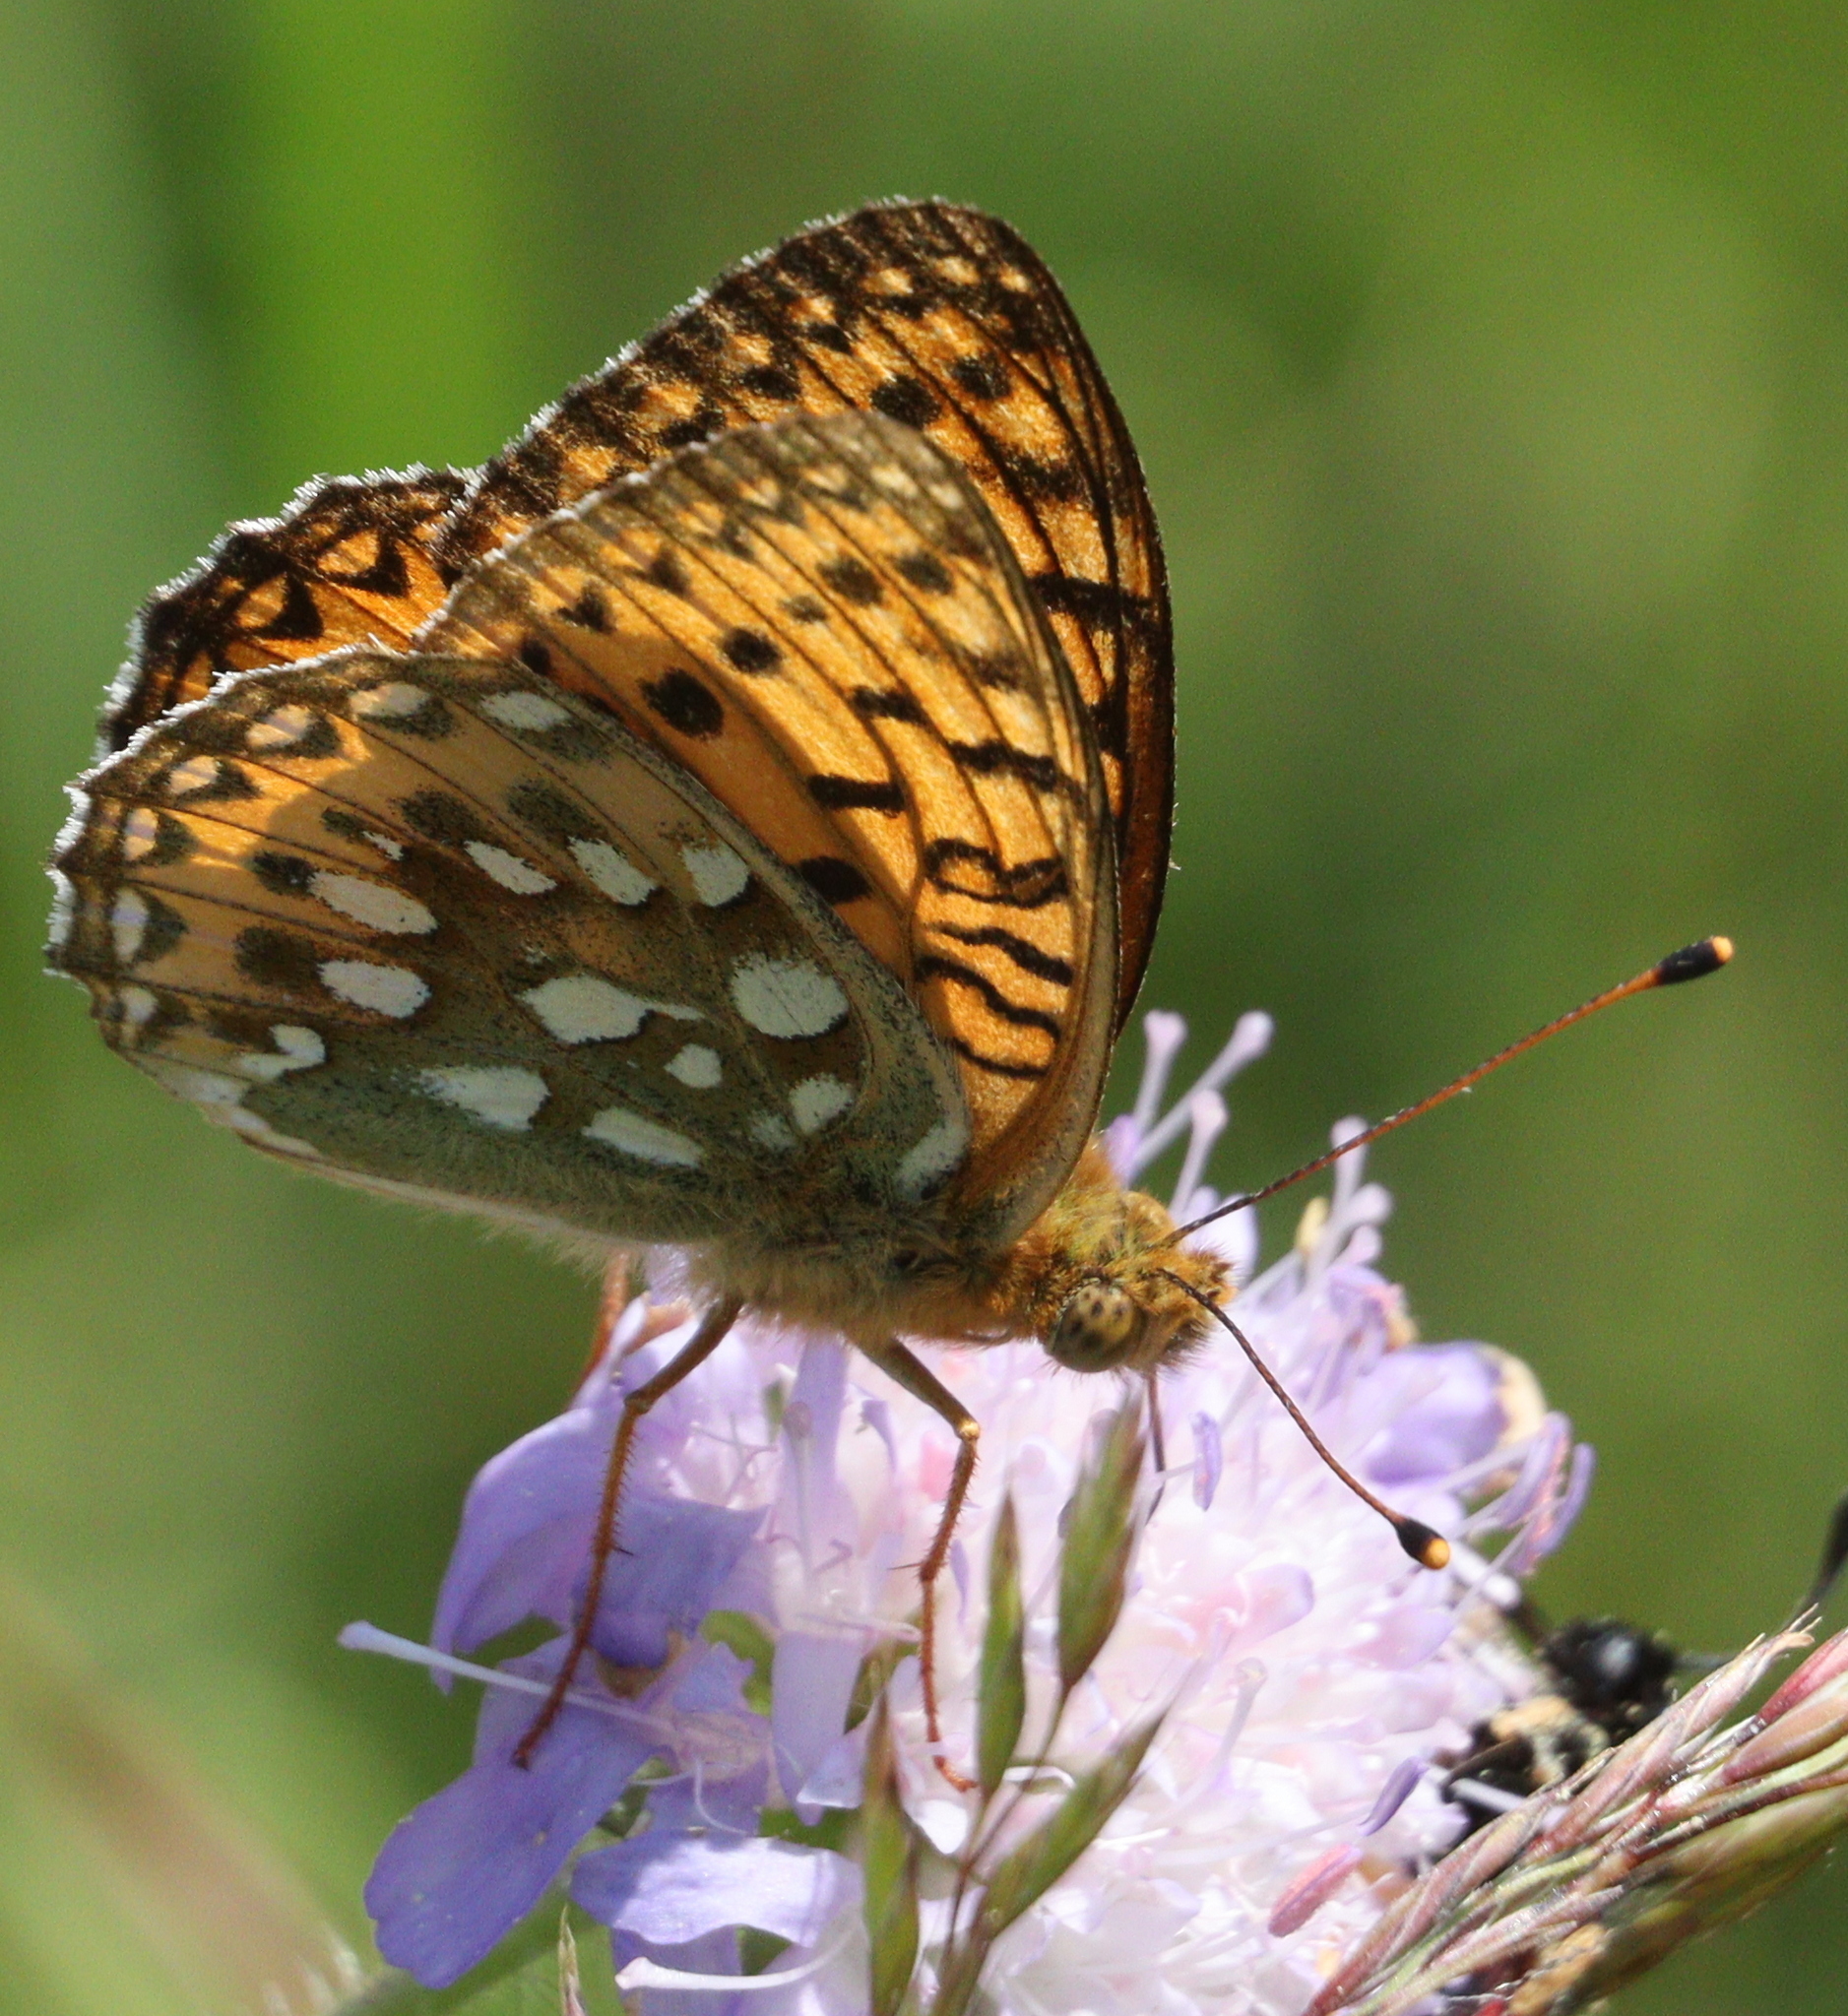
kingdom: Animalia
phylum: Arthropoda
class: Insecta
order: Lepidoptera
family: Nymphalidae
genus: Speyeria
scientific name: Speyeria aglaja
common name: Dark green fritillary
